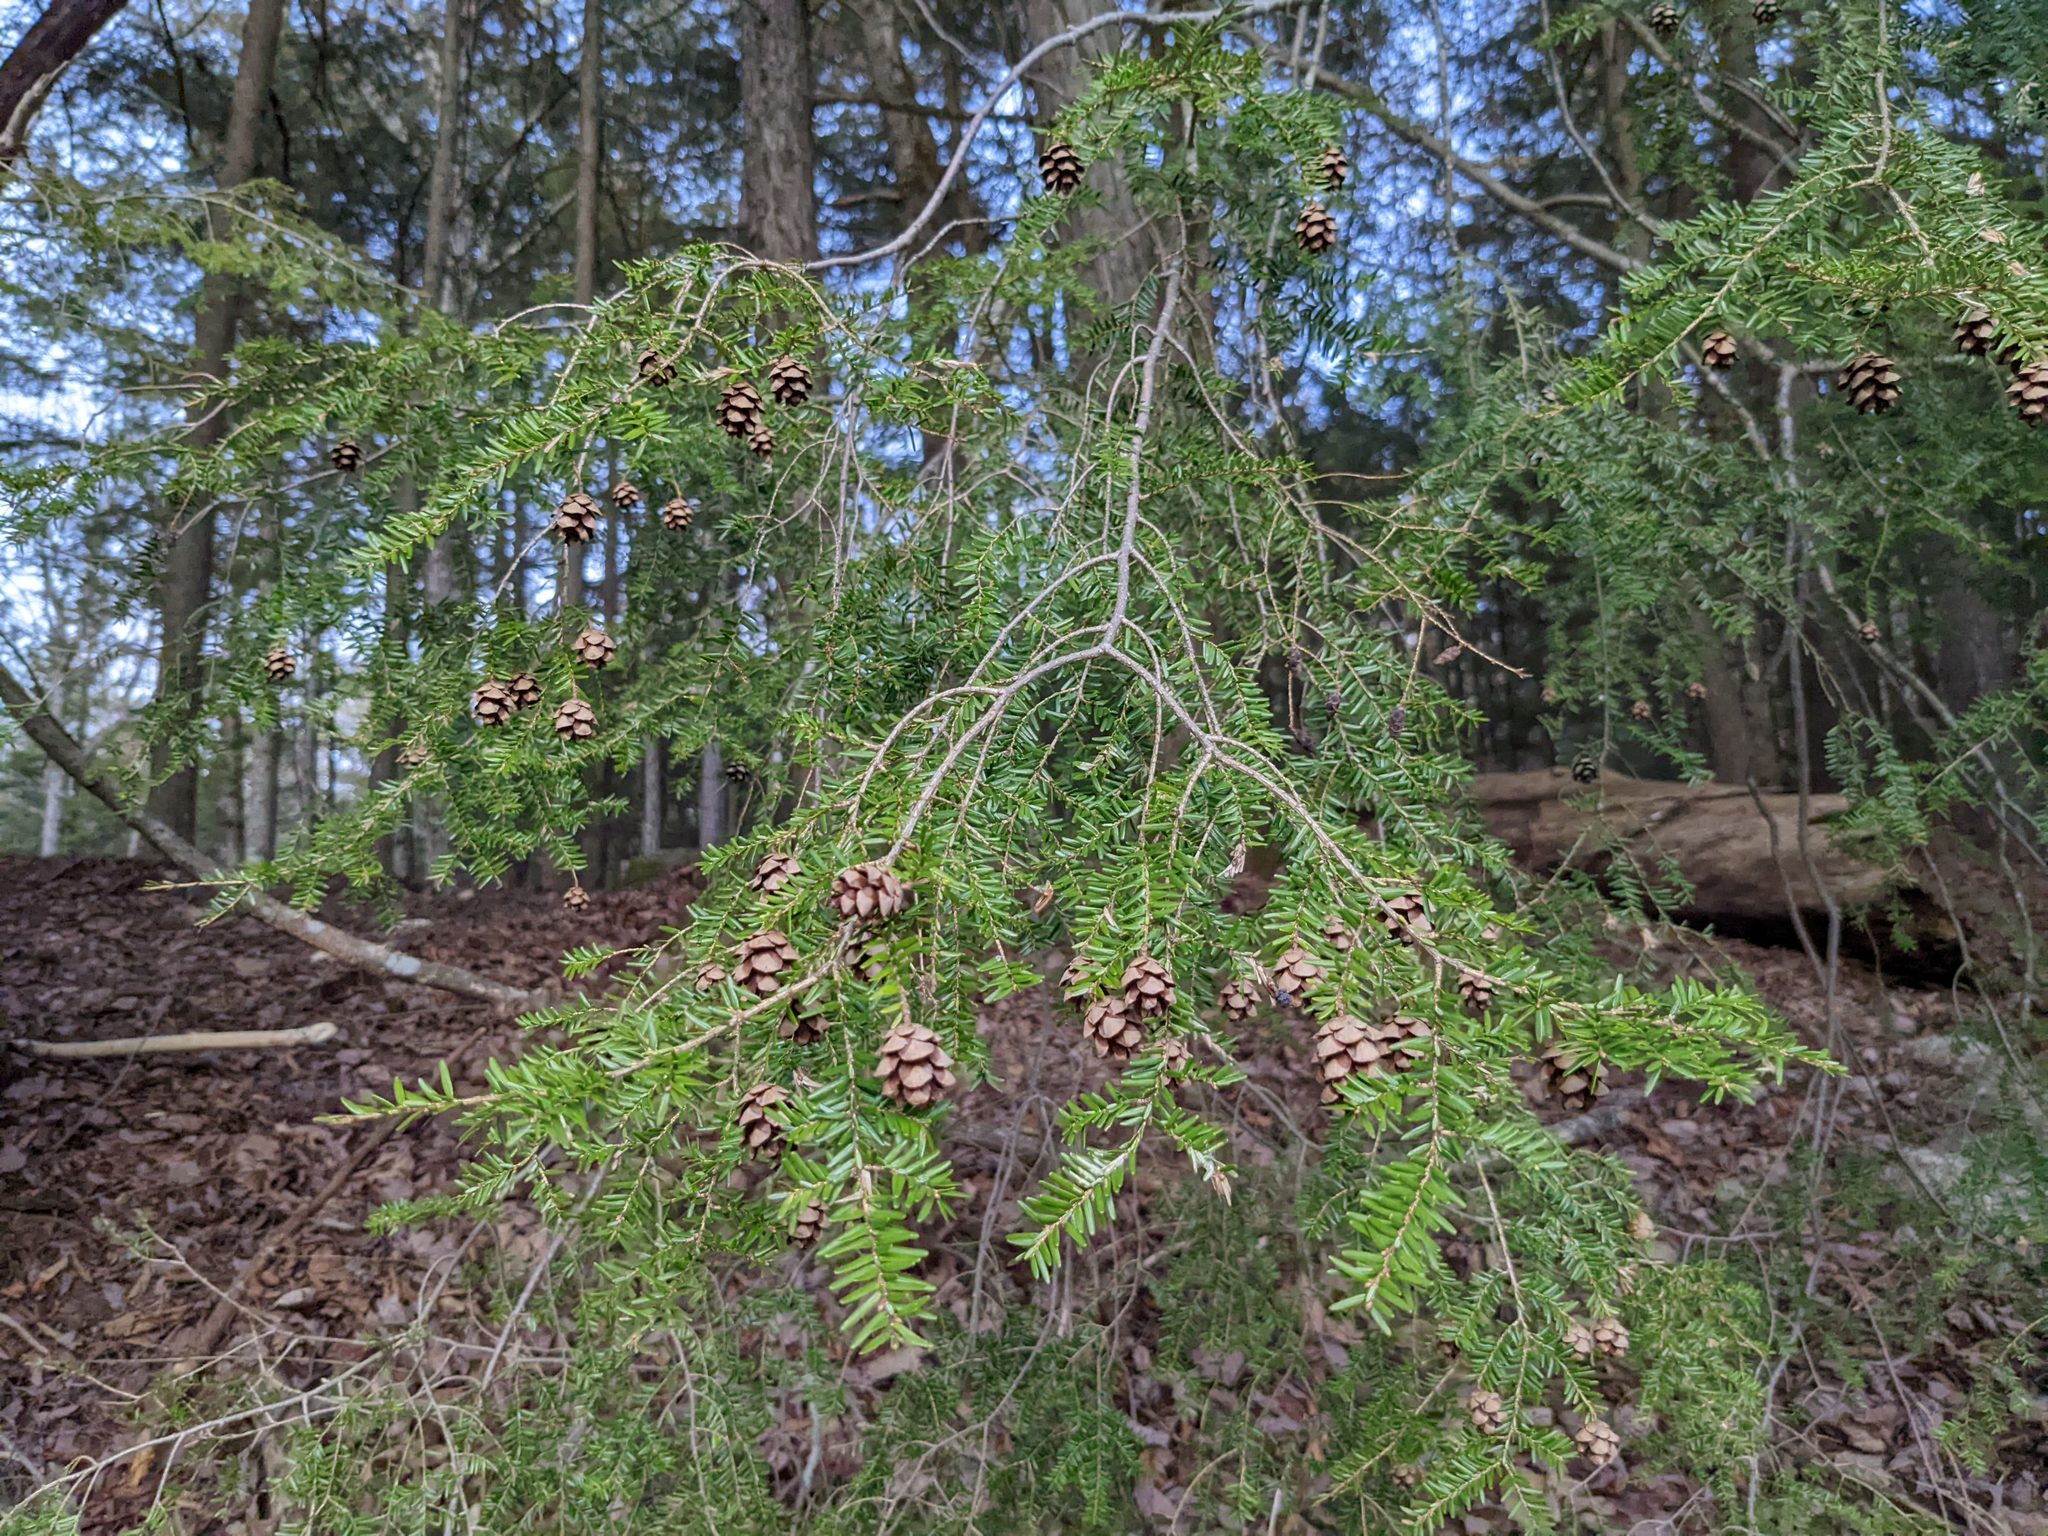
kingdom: Plantae
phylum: Tracheophyta
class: Pinopsida
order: Pinales
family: Pinaceae
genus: Tsuga
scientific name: Tsuga canadensis
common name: Eastern hemlock
